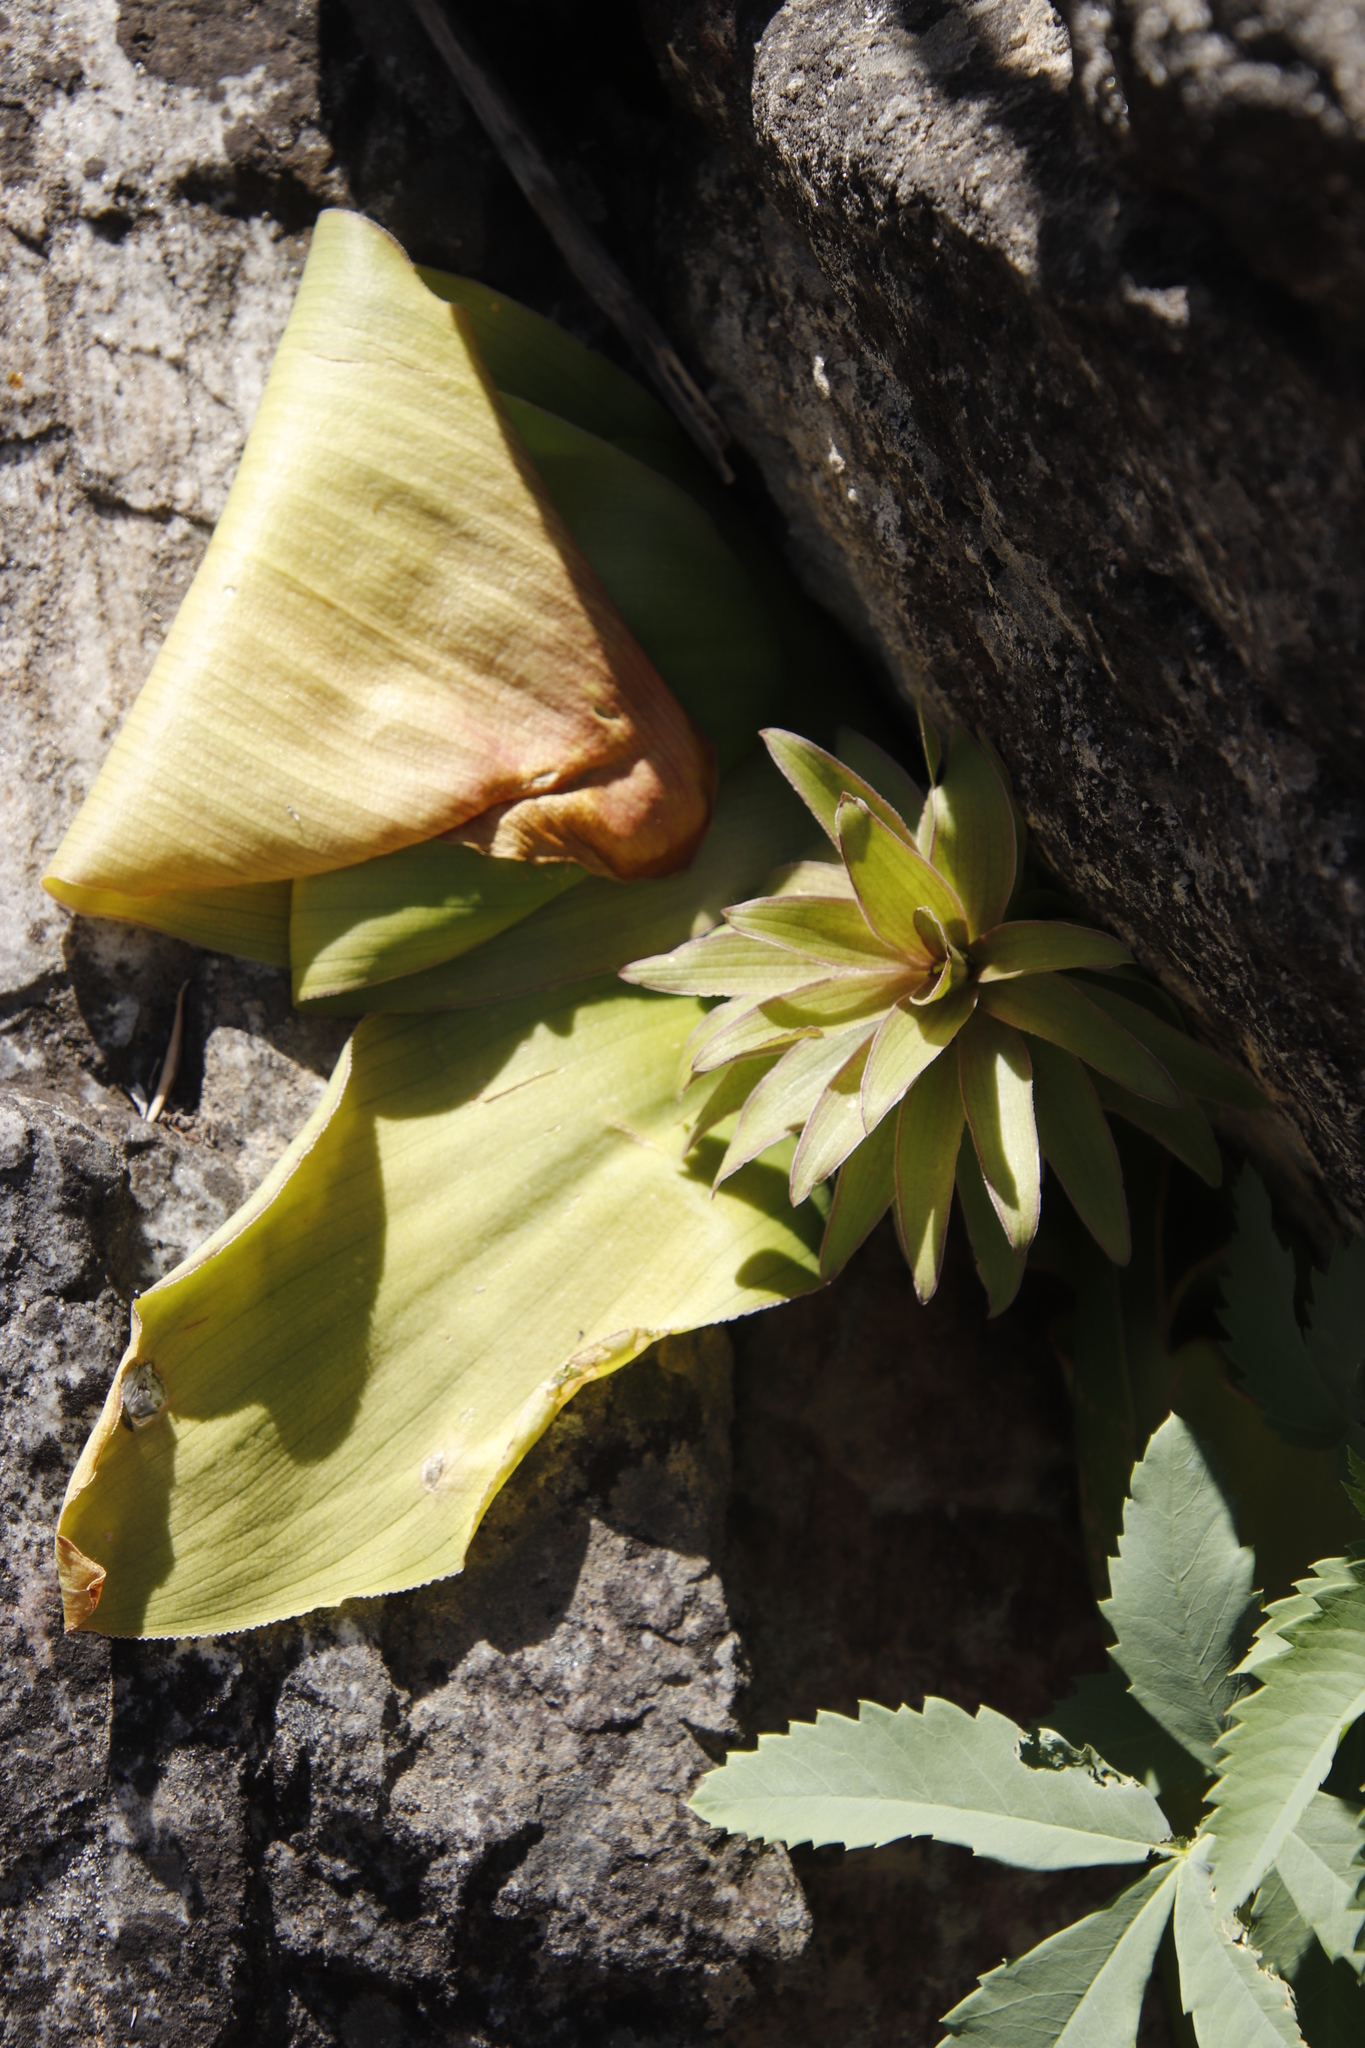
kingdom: Plantae
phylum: Tracheophyta
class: Liliopsida
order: Asparagales
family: Asparagaceae
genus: Eucomis
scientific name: Eucomis regia
